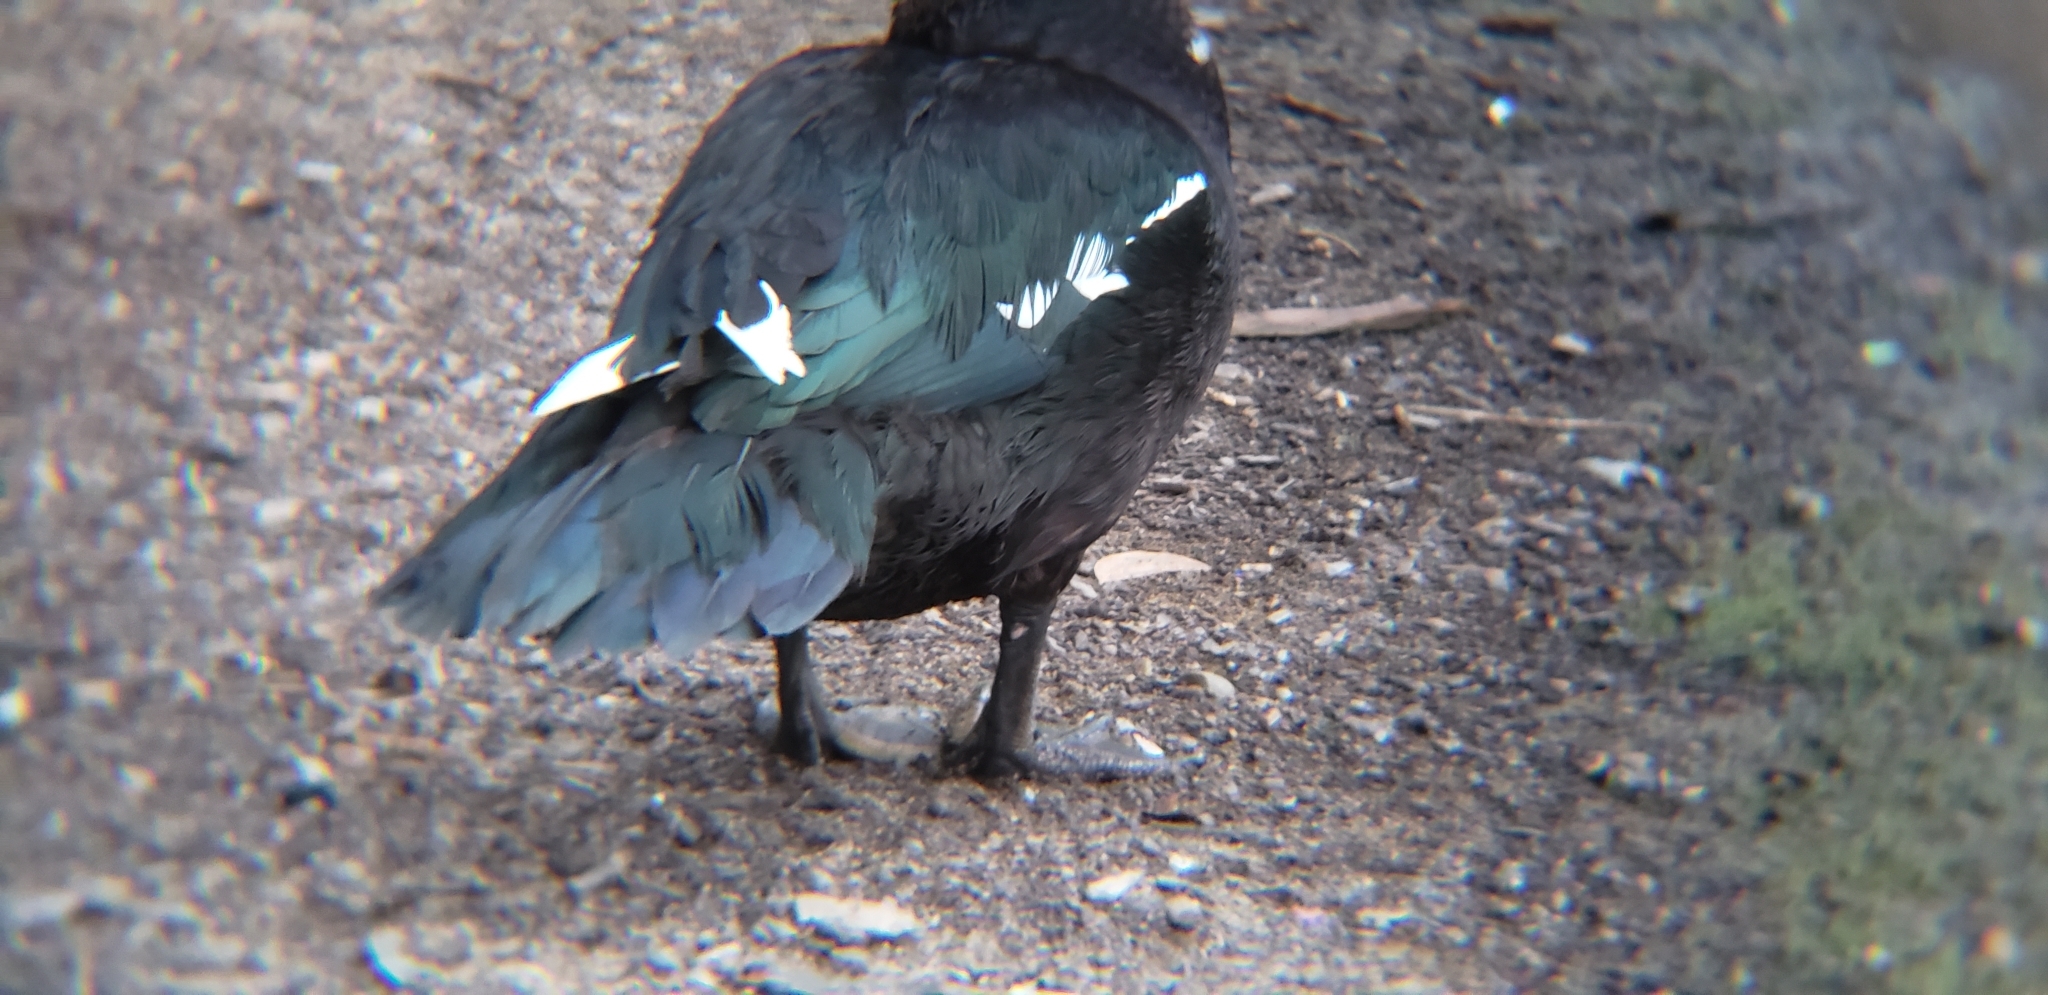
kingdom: Animalia
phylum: Chordata
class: Aves
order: Anseriformes
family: Anatidae
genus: Cairina
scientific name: Cairina moschata
